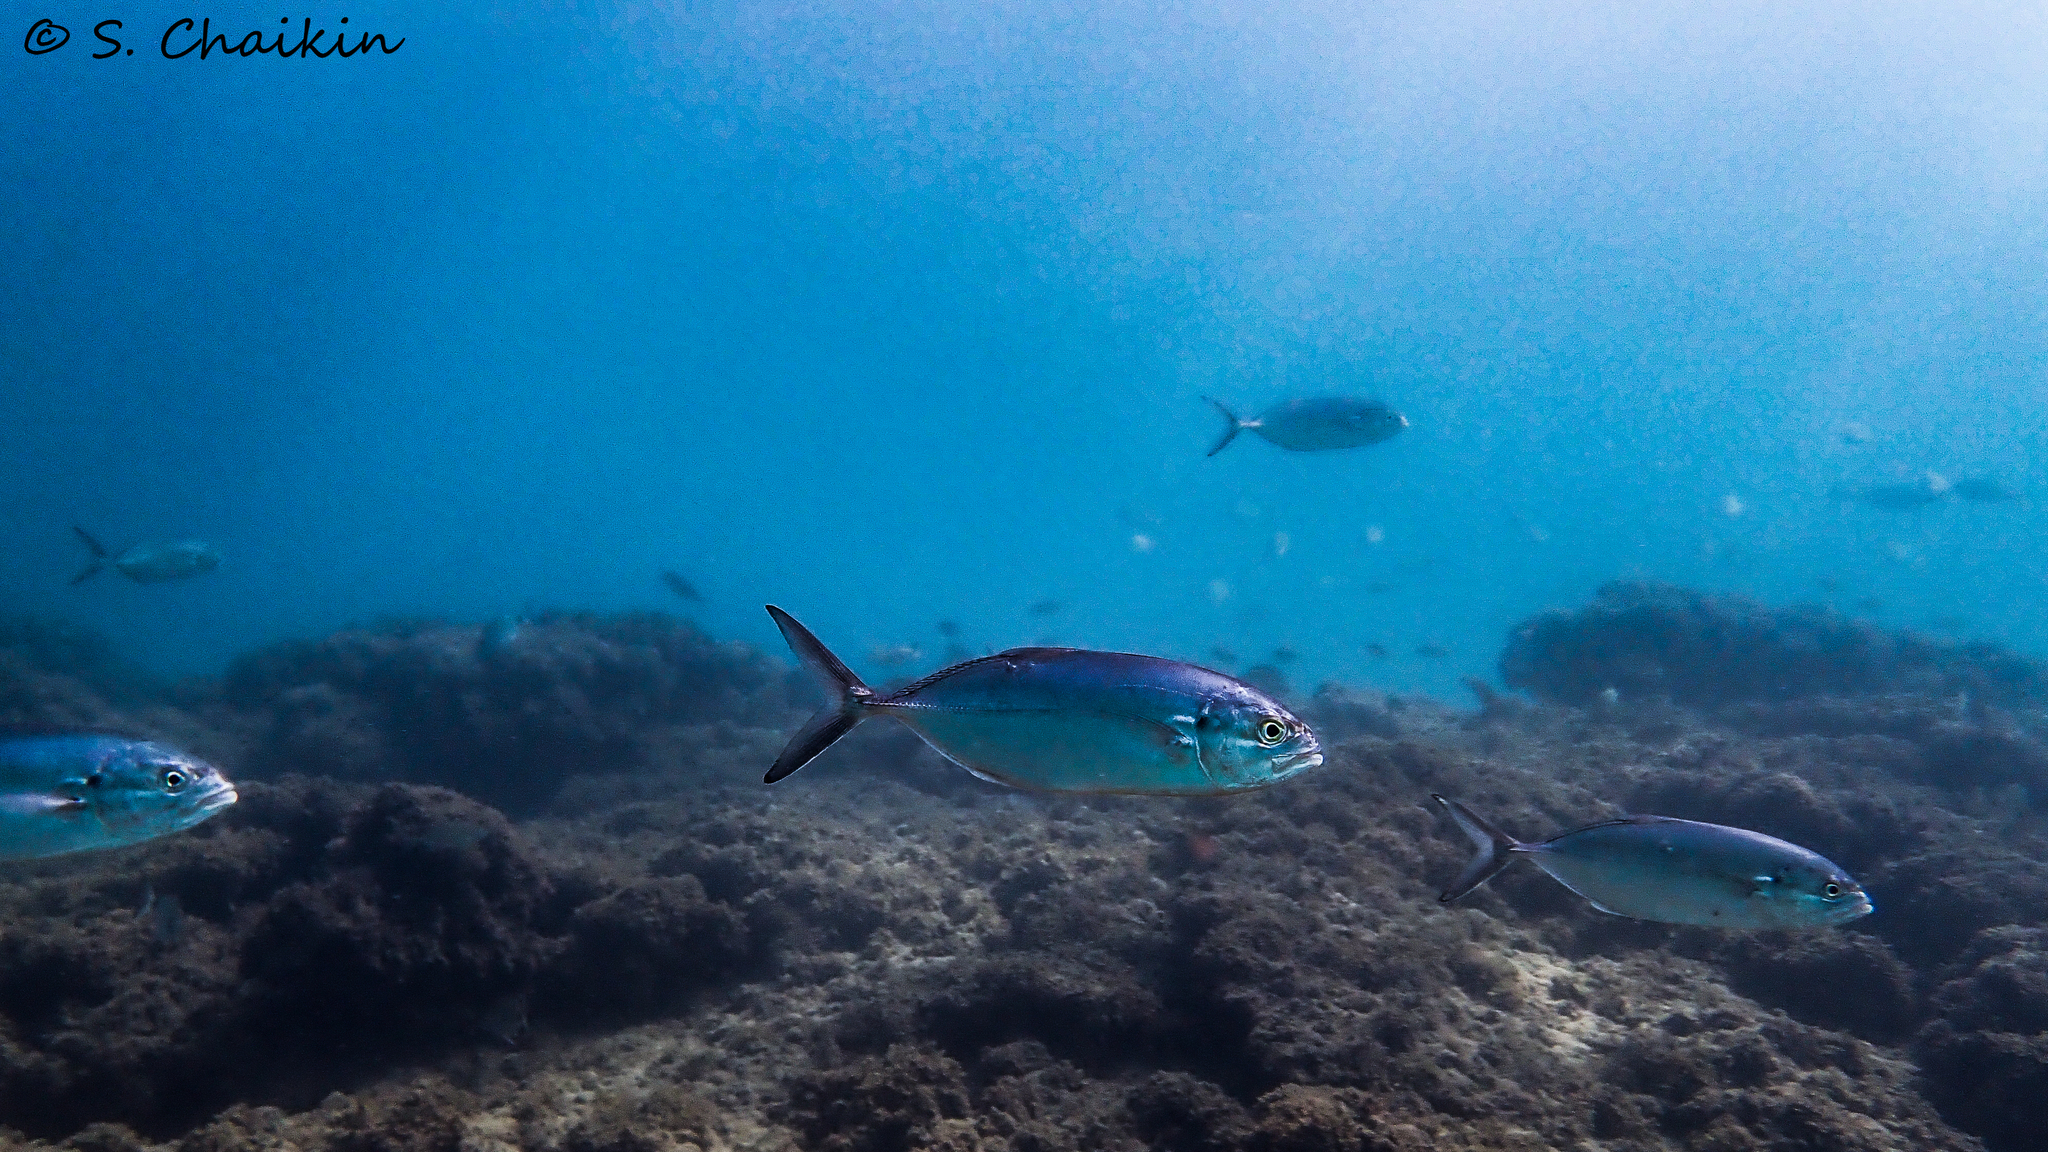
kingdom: Animalia
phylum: Chordata
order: Perciformes
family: Carangidae
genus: Caranx
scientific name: Caranx crysos
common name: Blue runner
